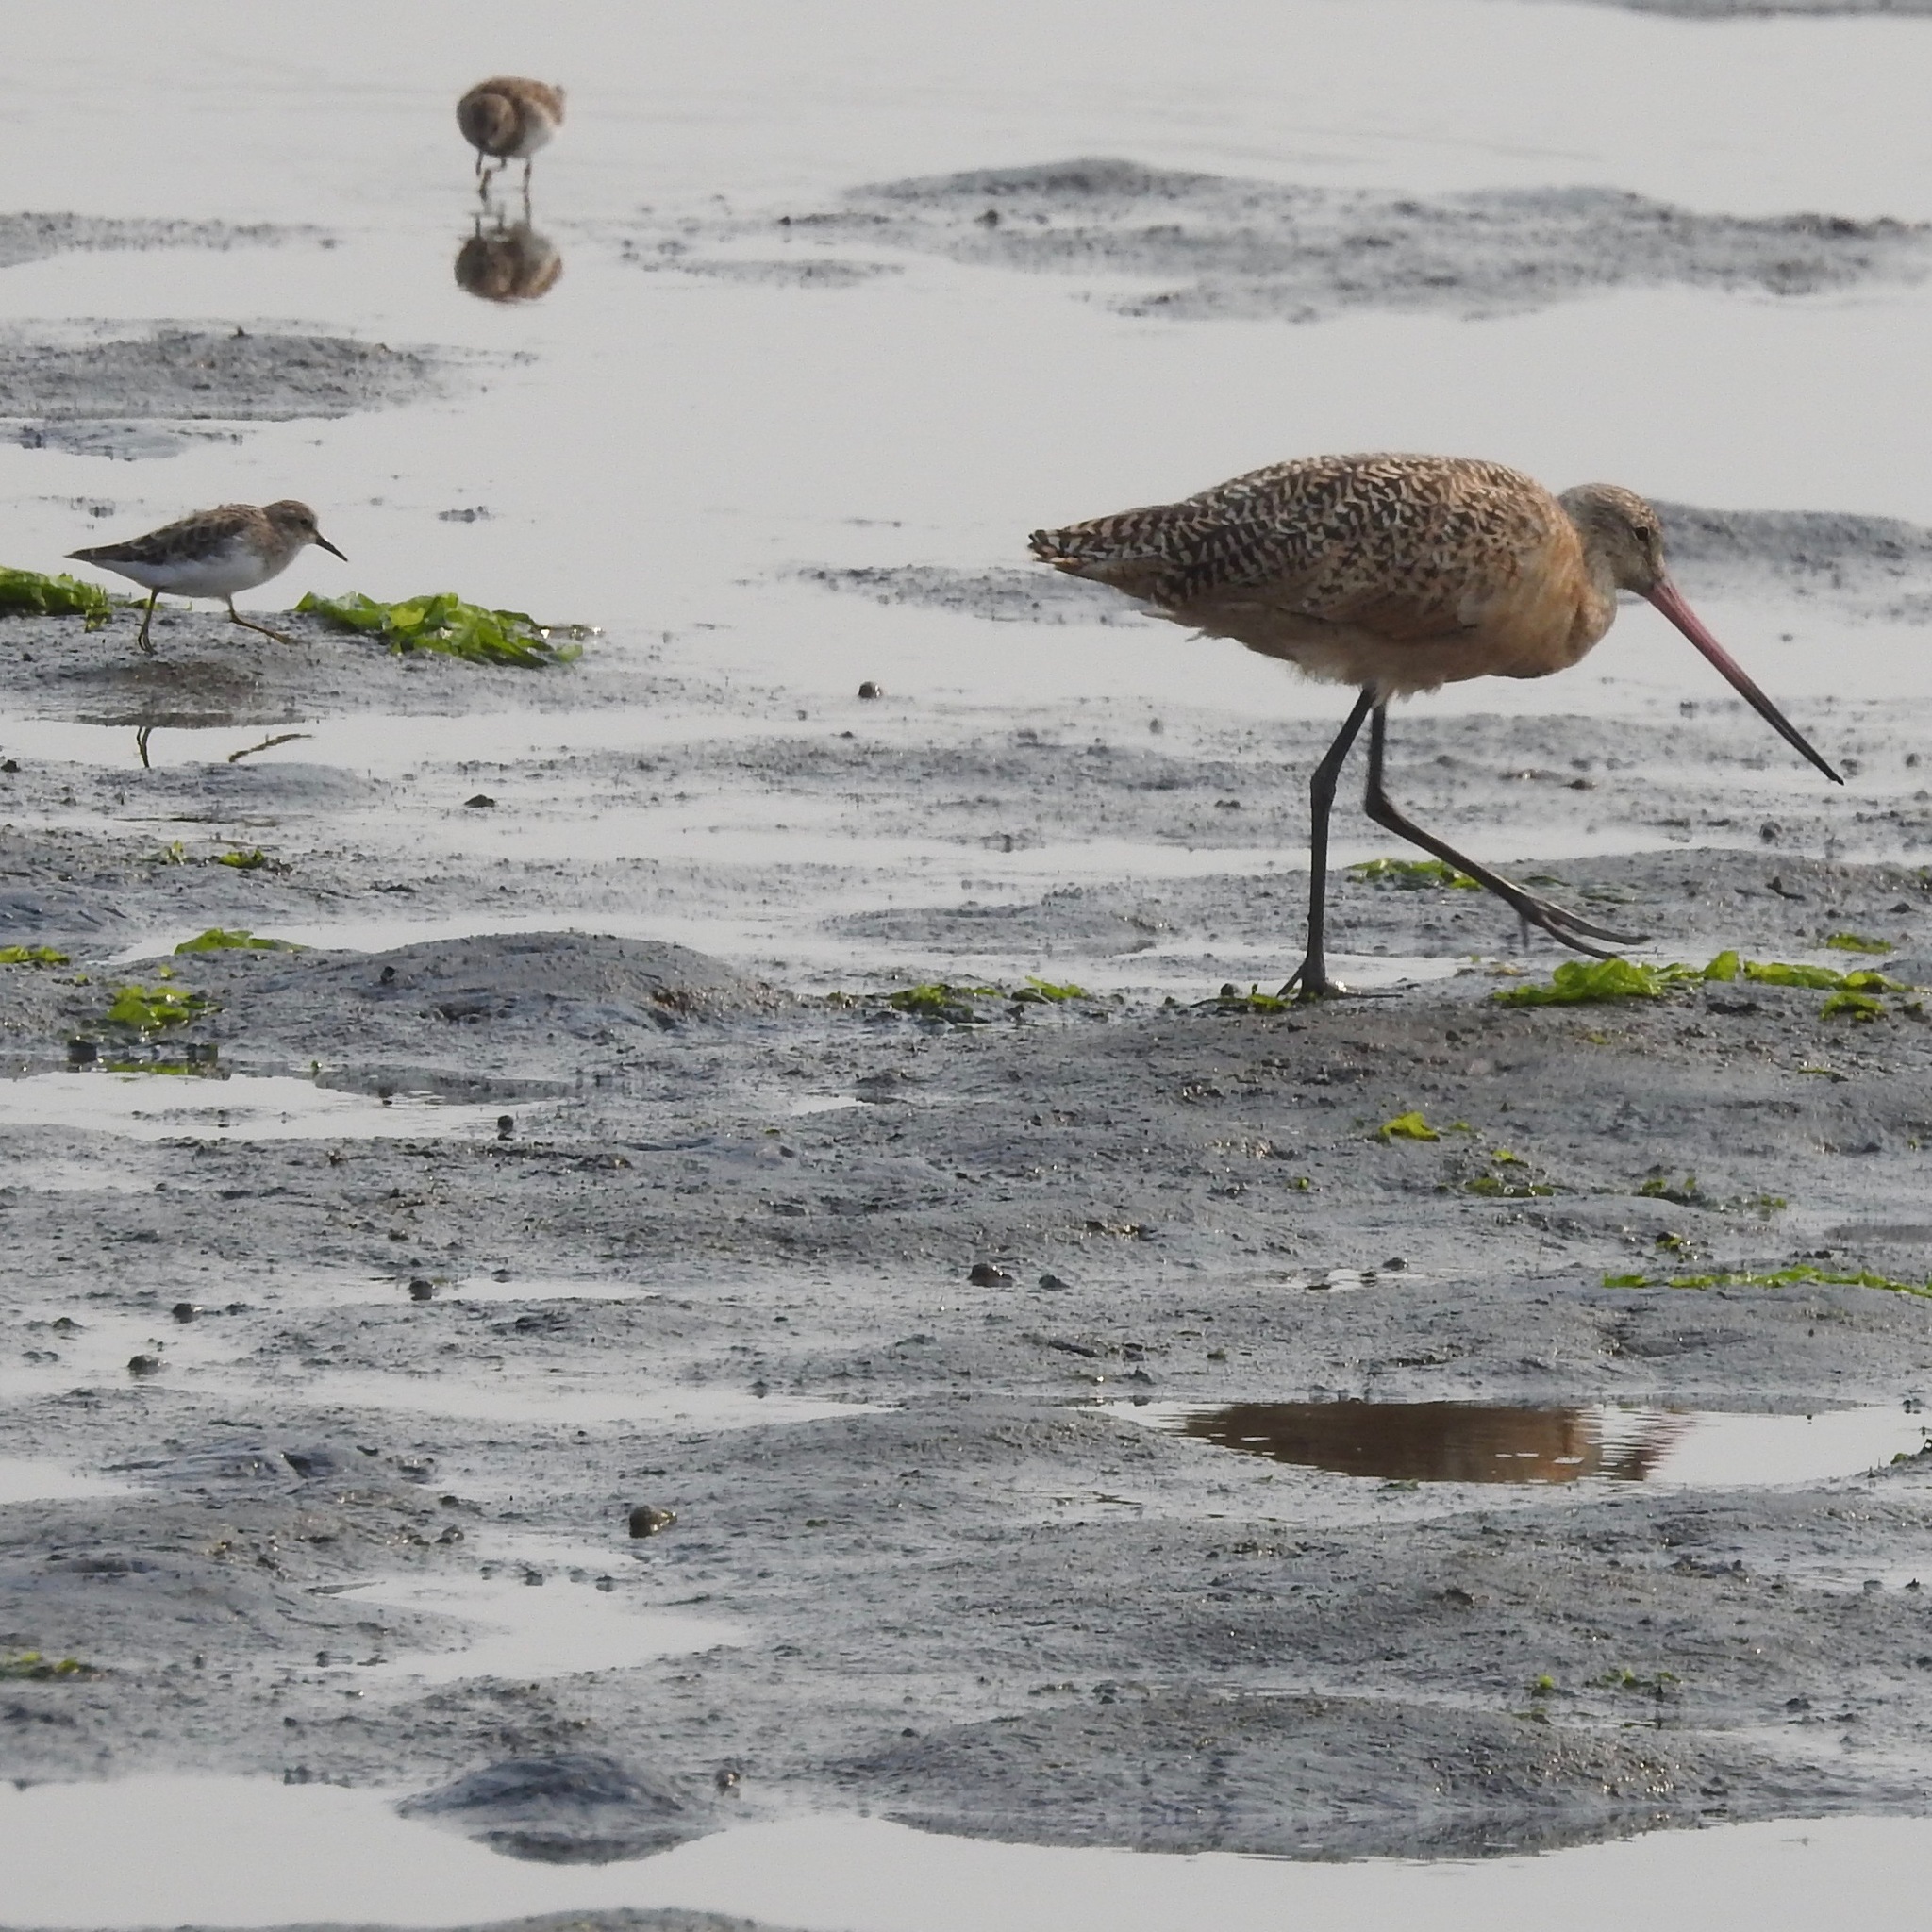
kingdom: Animalia
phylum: Chordata
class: Aves
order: Charadriiformes
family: Scolopacidae
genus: Limosa
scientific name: Limosa fedoa
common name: Marbled godwit
